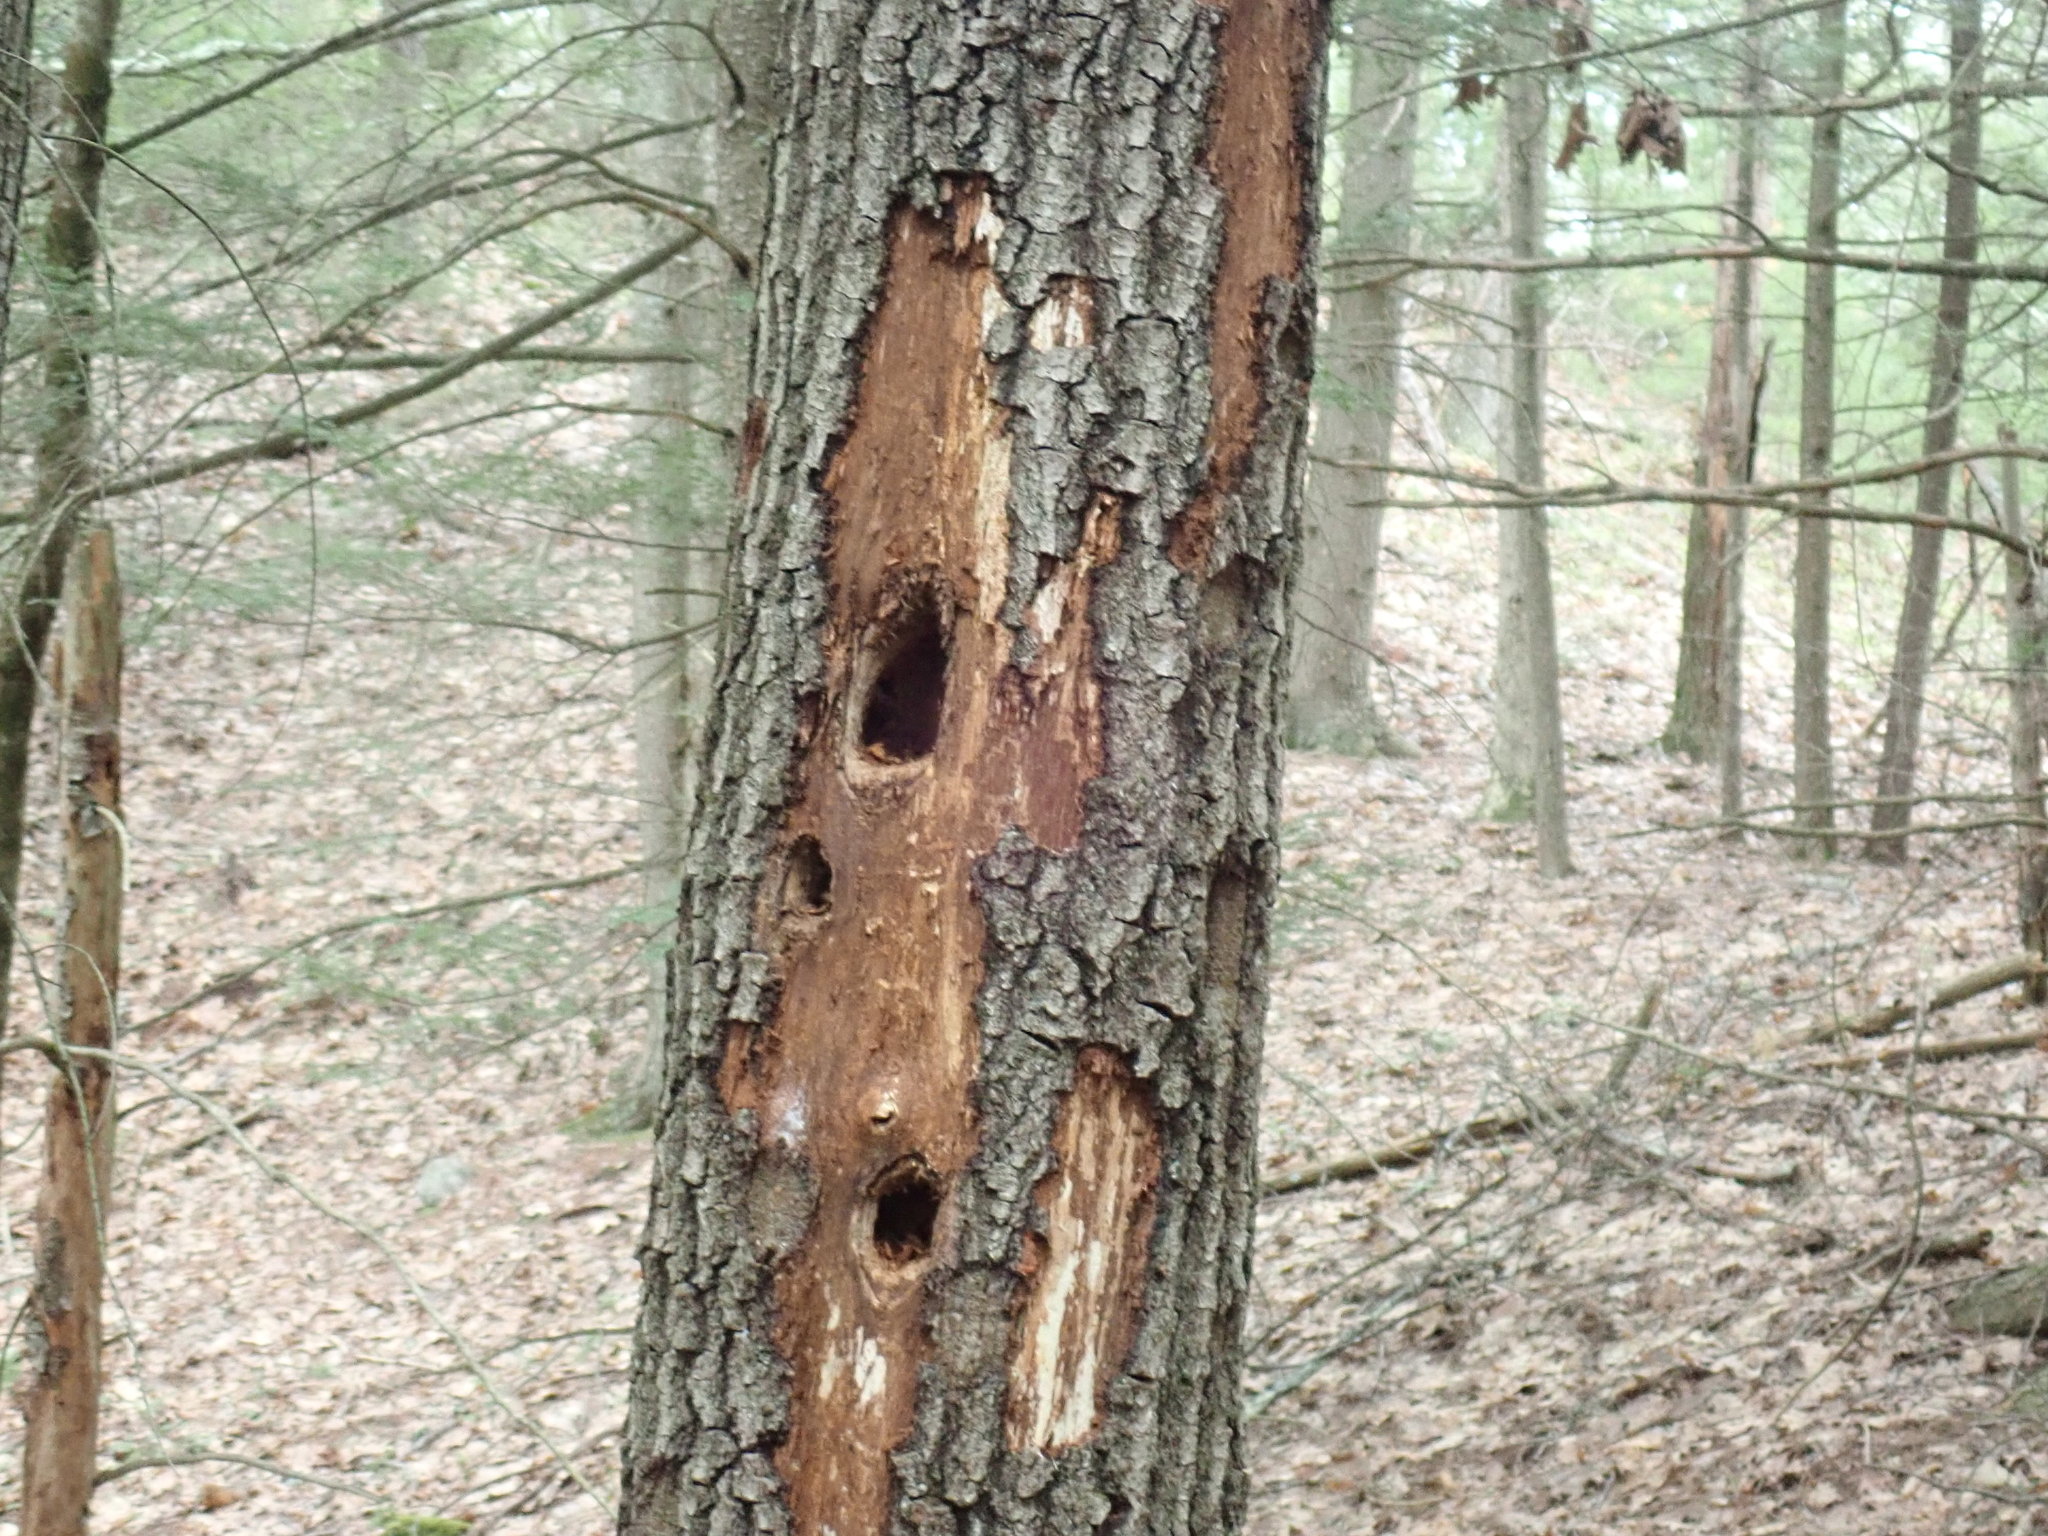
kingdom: Animalia
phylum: Chordata
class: Aves
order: Piciformes
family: Picidae
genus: Dryocopus
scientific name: Dryocopus pileatus
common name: Pileated woodpecker
